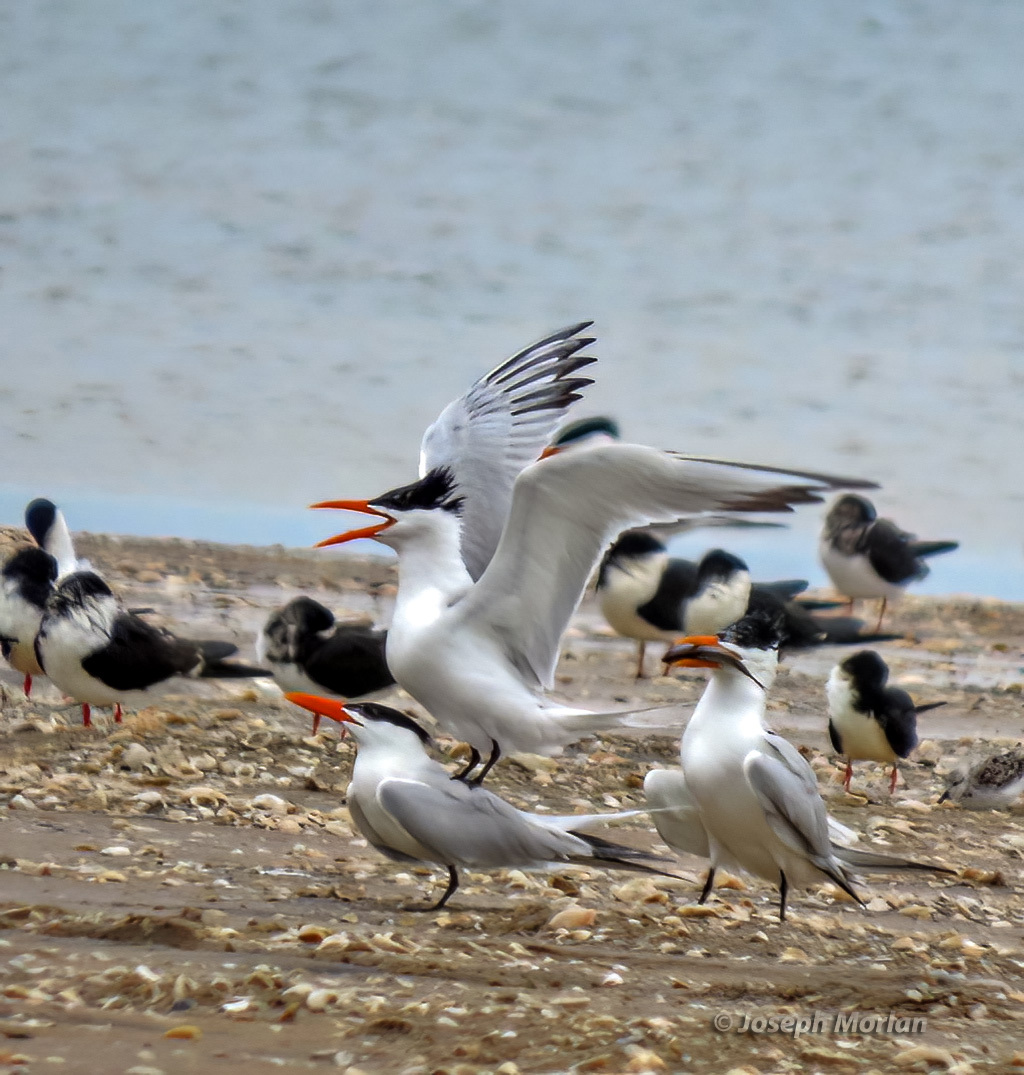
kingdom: Animalia
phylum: Chordata
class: Aves
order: Charadriiformes
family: Laridae
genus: Thalasseus
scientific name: Thalasseus maximus
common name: Royal tern
